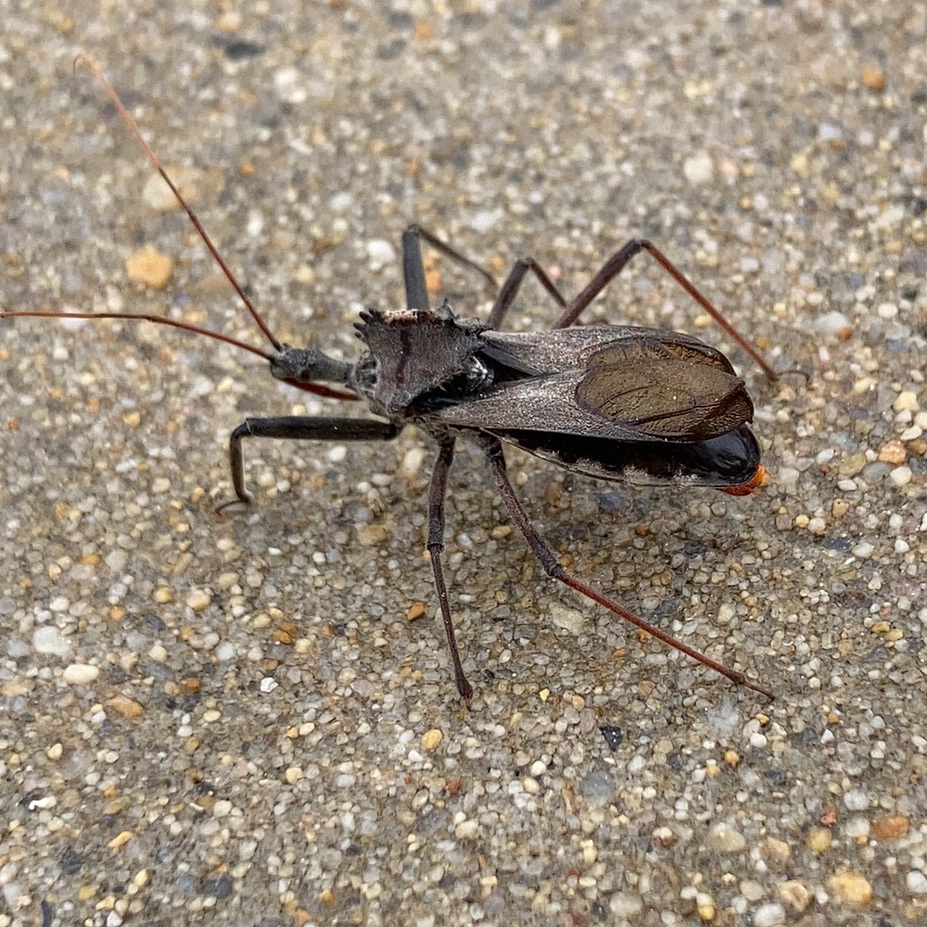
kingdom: Animalia
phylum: Arthropoda
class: Insecta
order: Hemiptera
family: Reduviidae
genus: Arilus
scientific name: Arilus cristatus
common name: North american wheel bug
